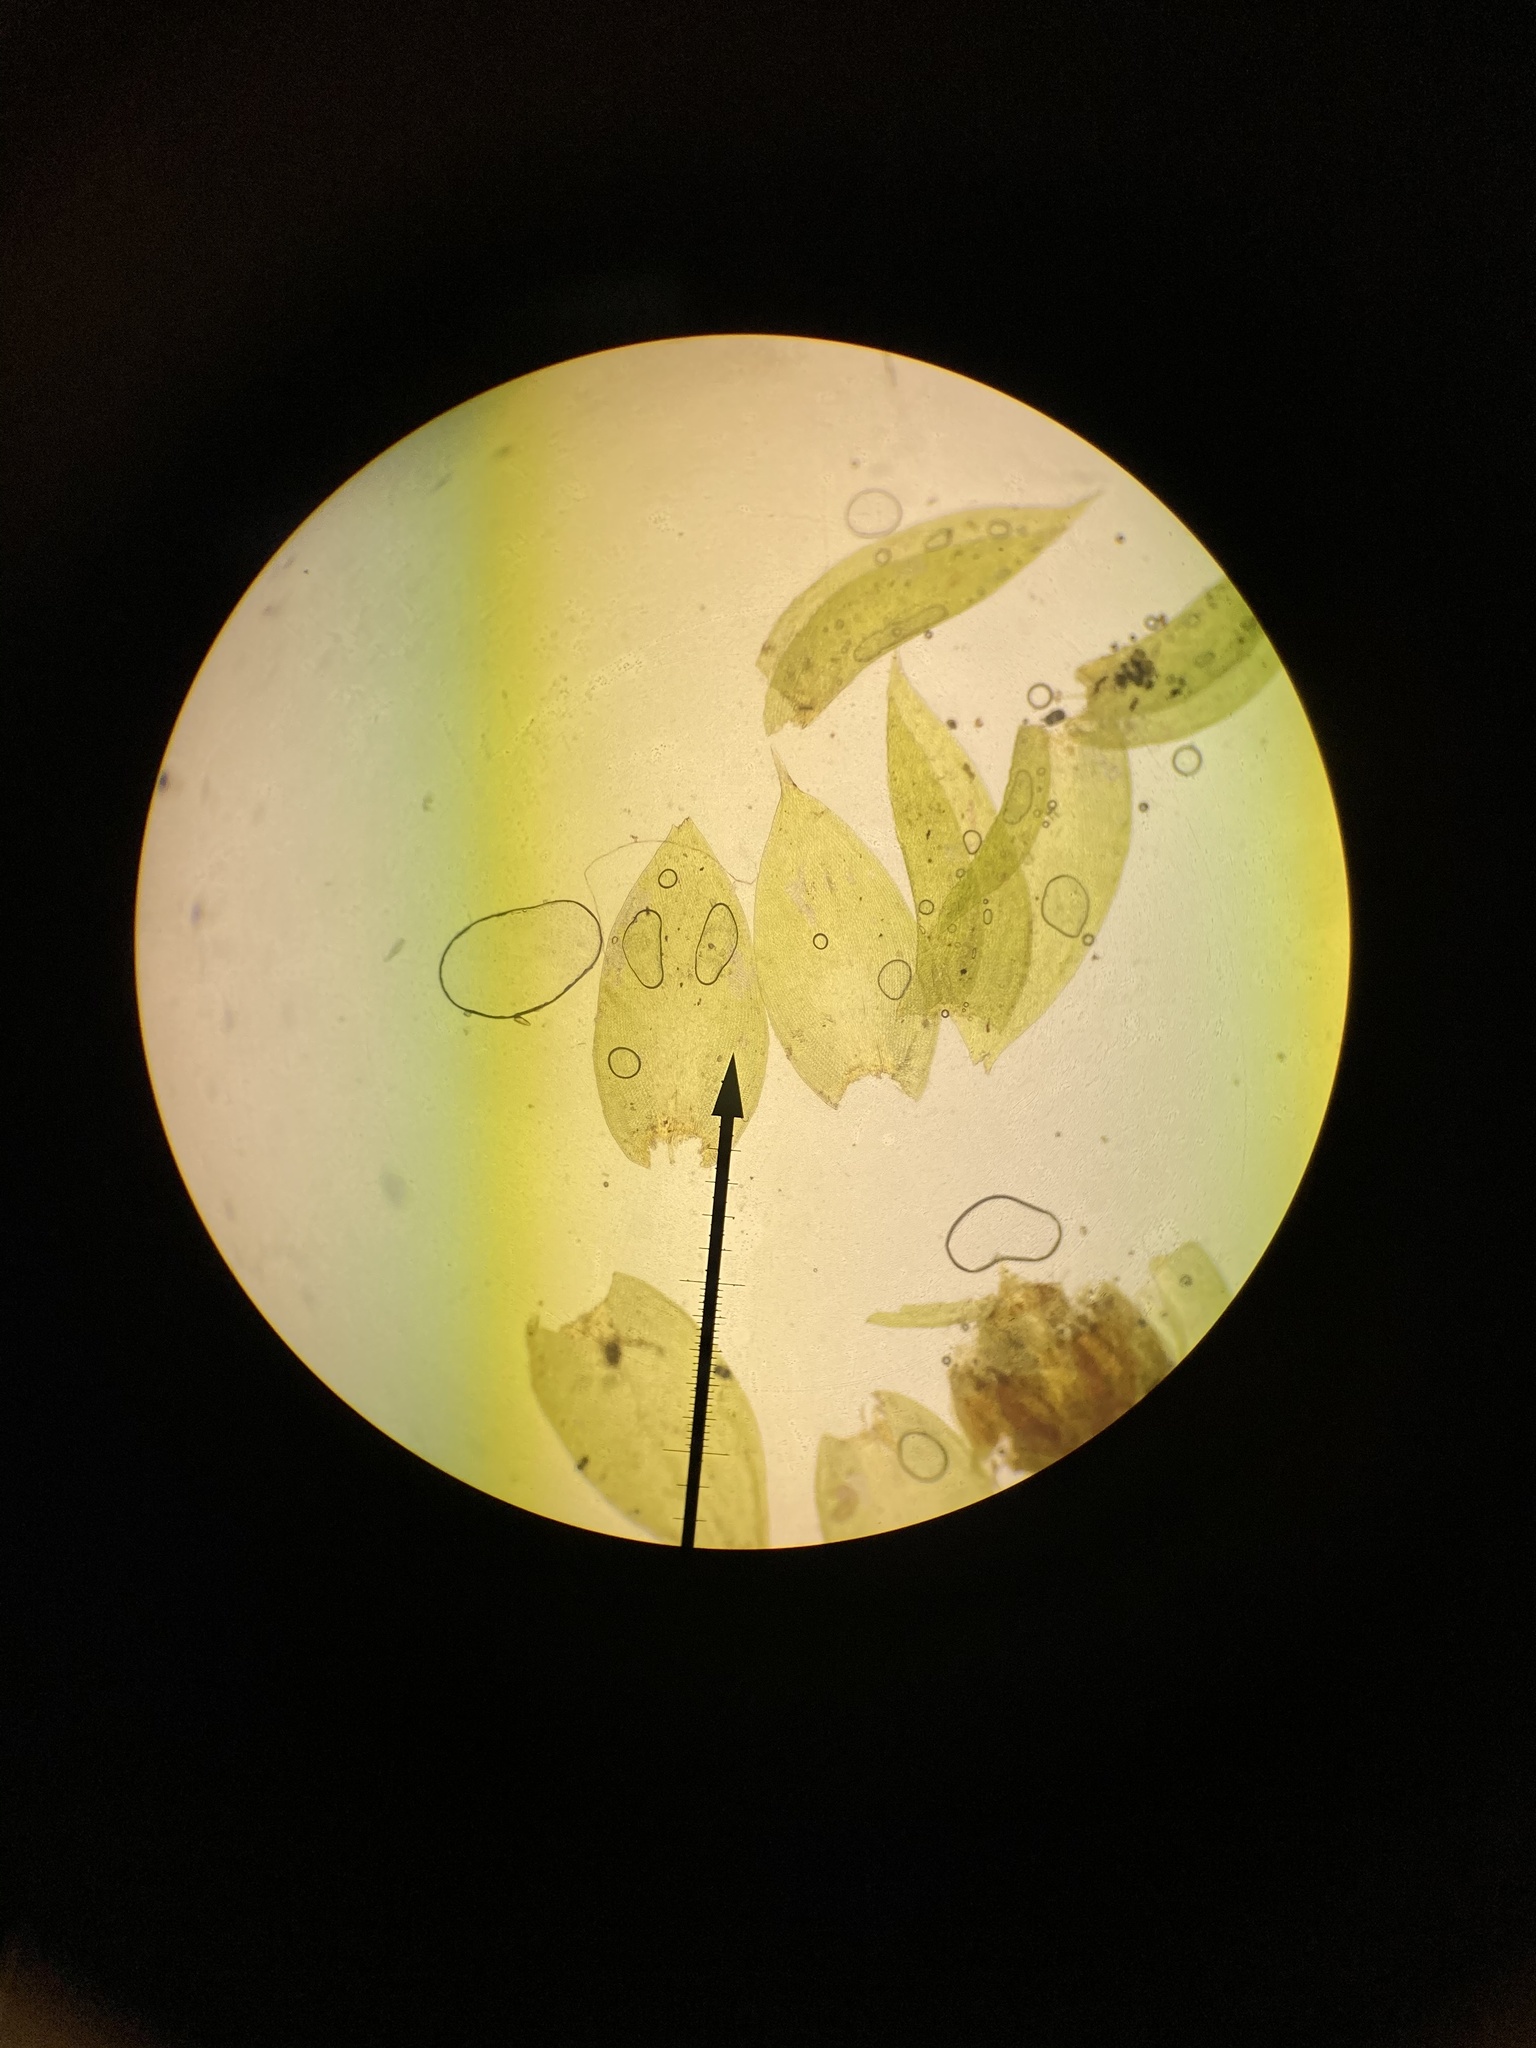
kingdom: Plantae
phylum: Bryophyta
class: Bryopsida
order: Hypnales
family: Leucodontaceae
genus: Leucodon
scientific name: Leucodon julaceus
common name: Smooth hook moss
